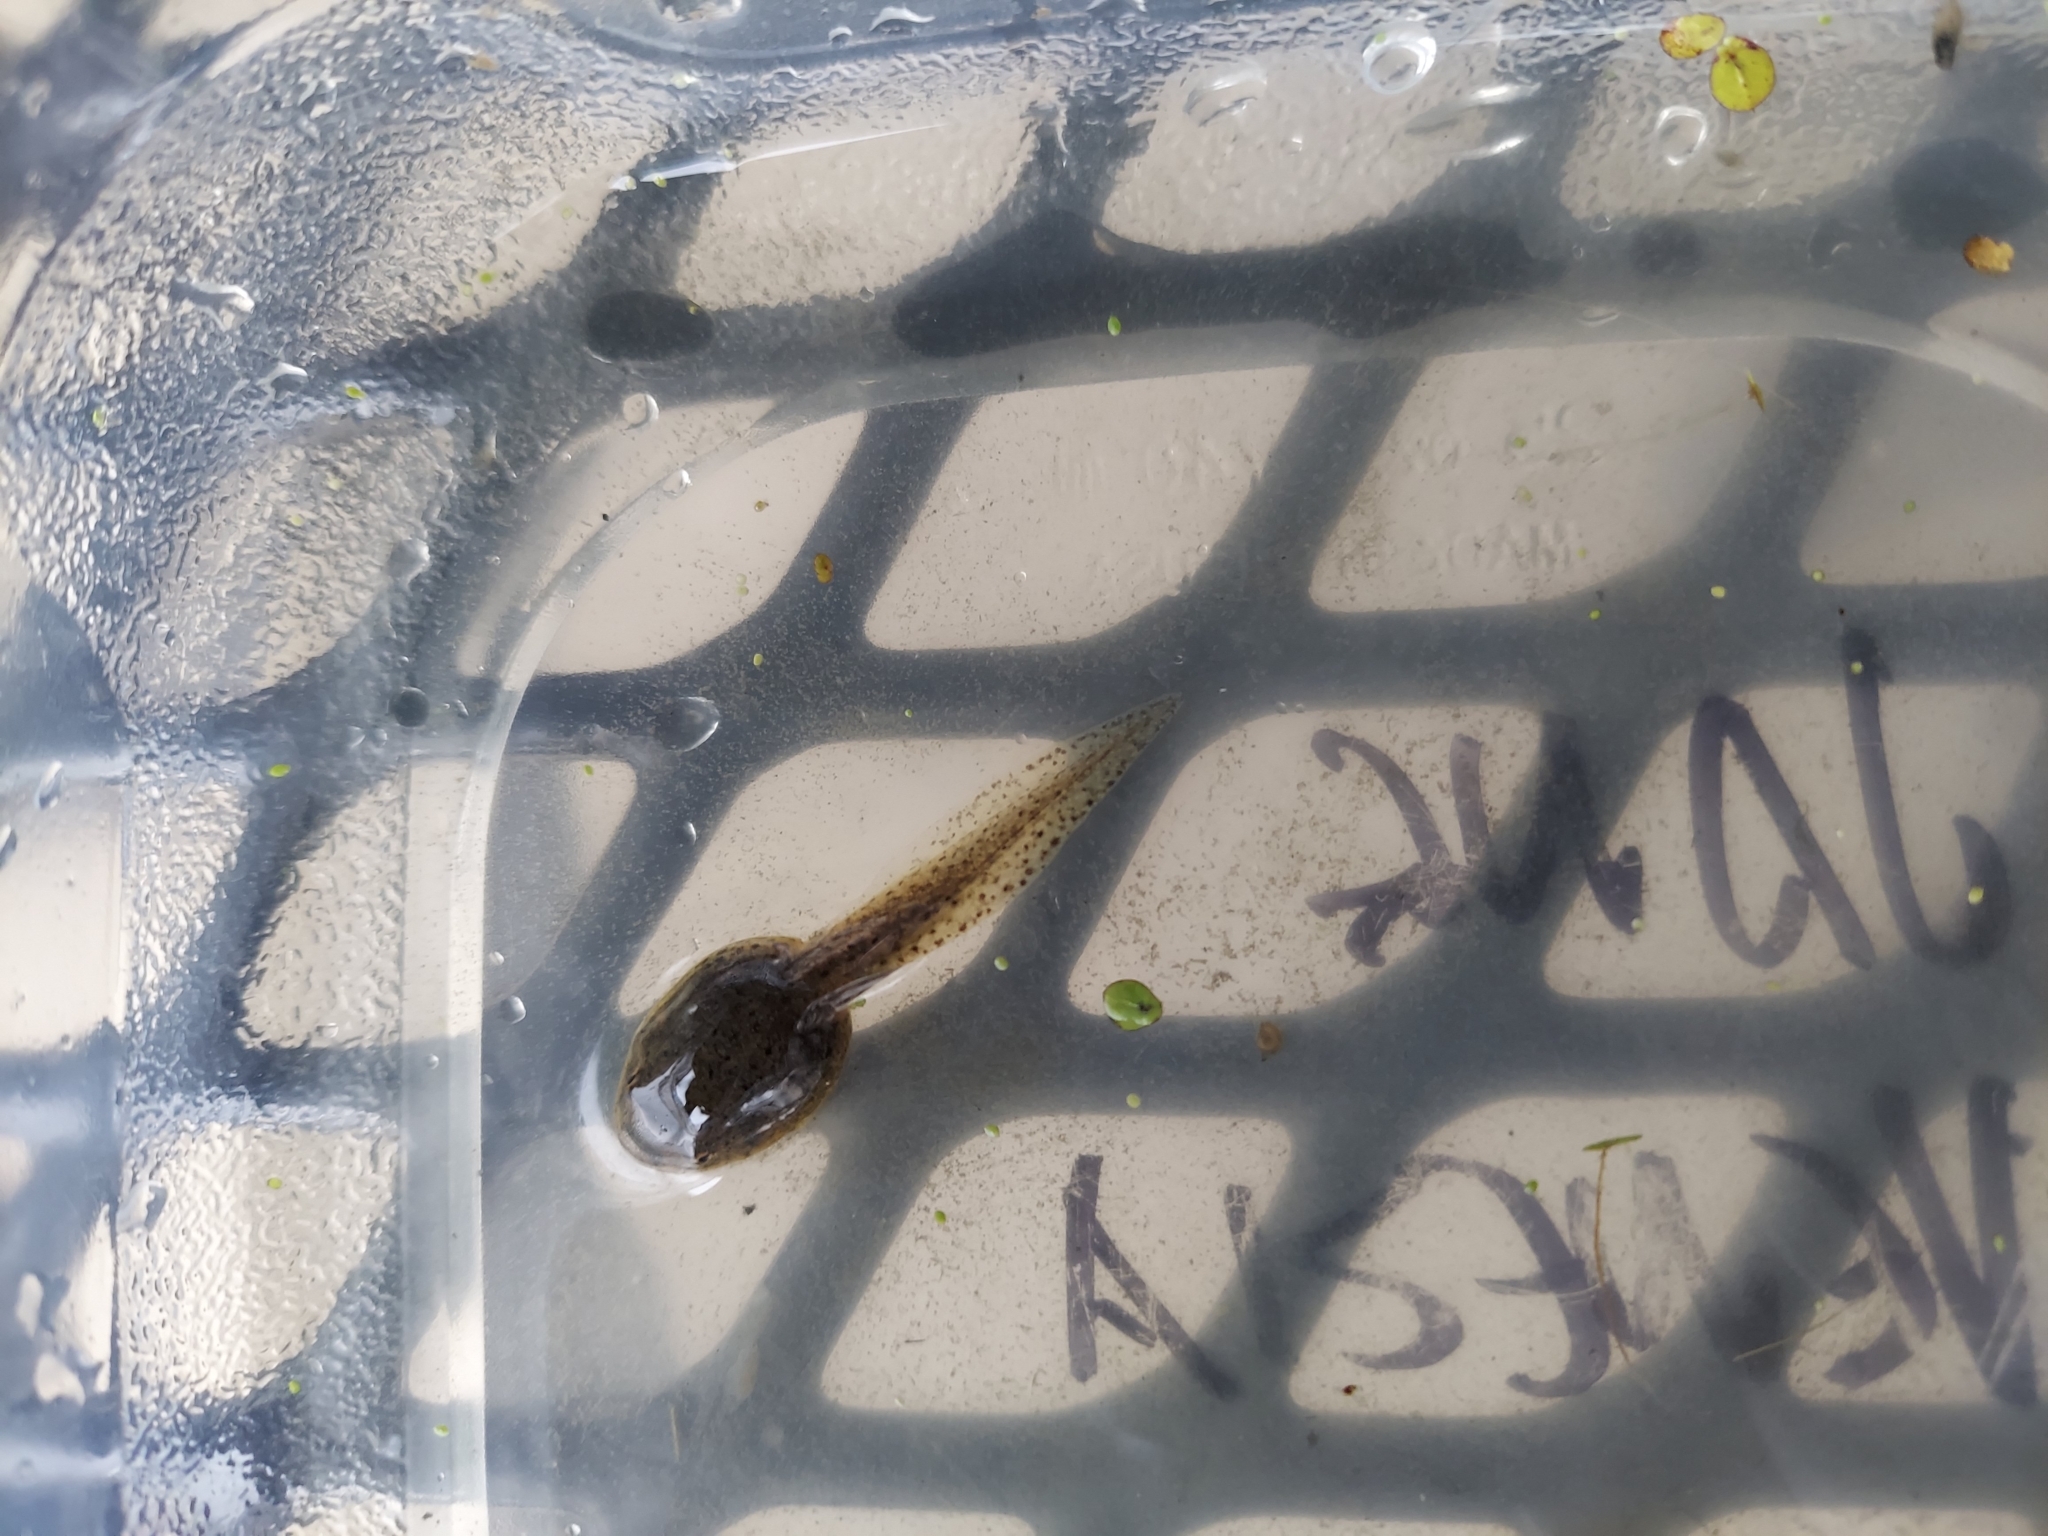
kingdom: Animalia
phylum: Chordata
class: Amphibia
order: Anura
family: Ranidae
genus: Lithobates
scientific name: Lithobates clamitans
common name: Green frog
